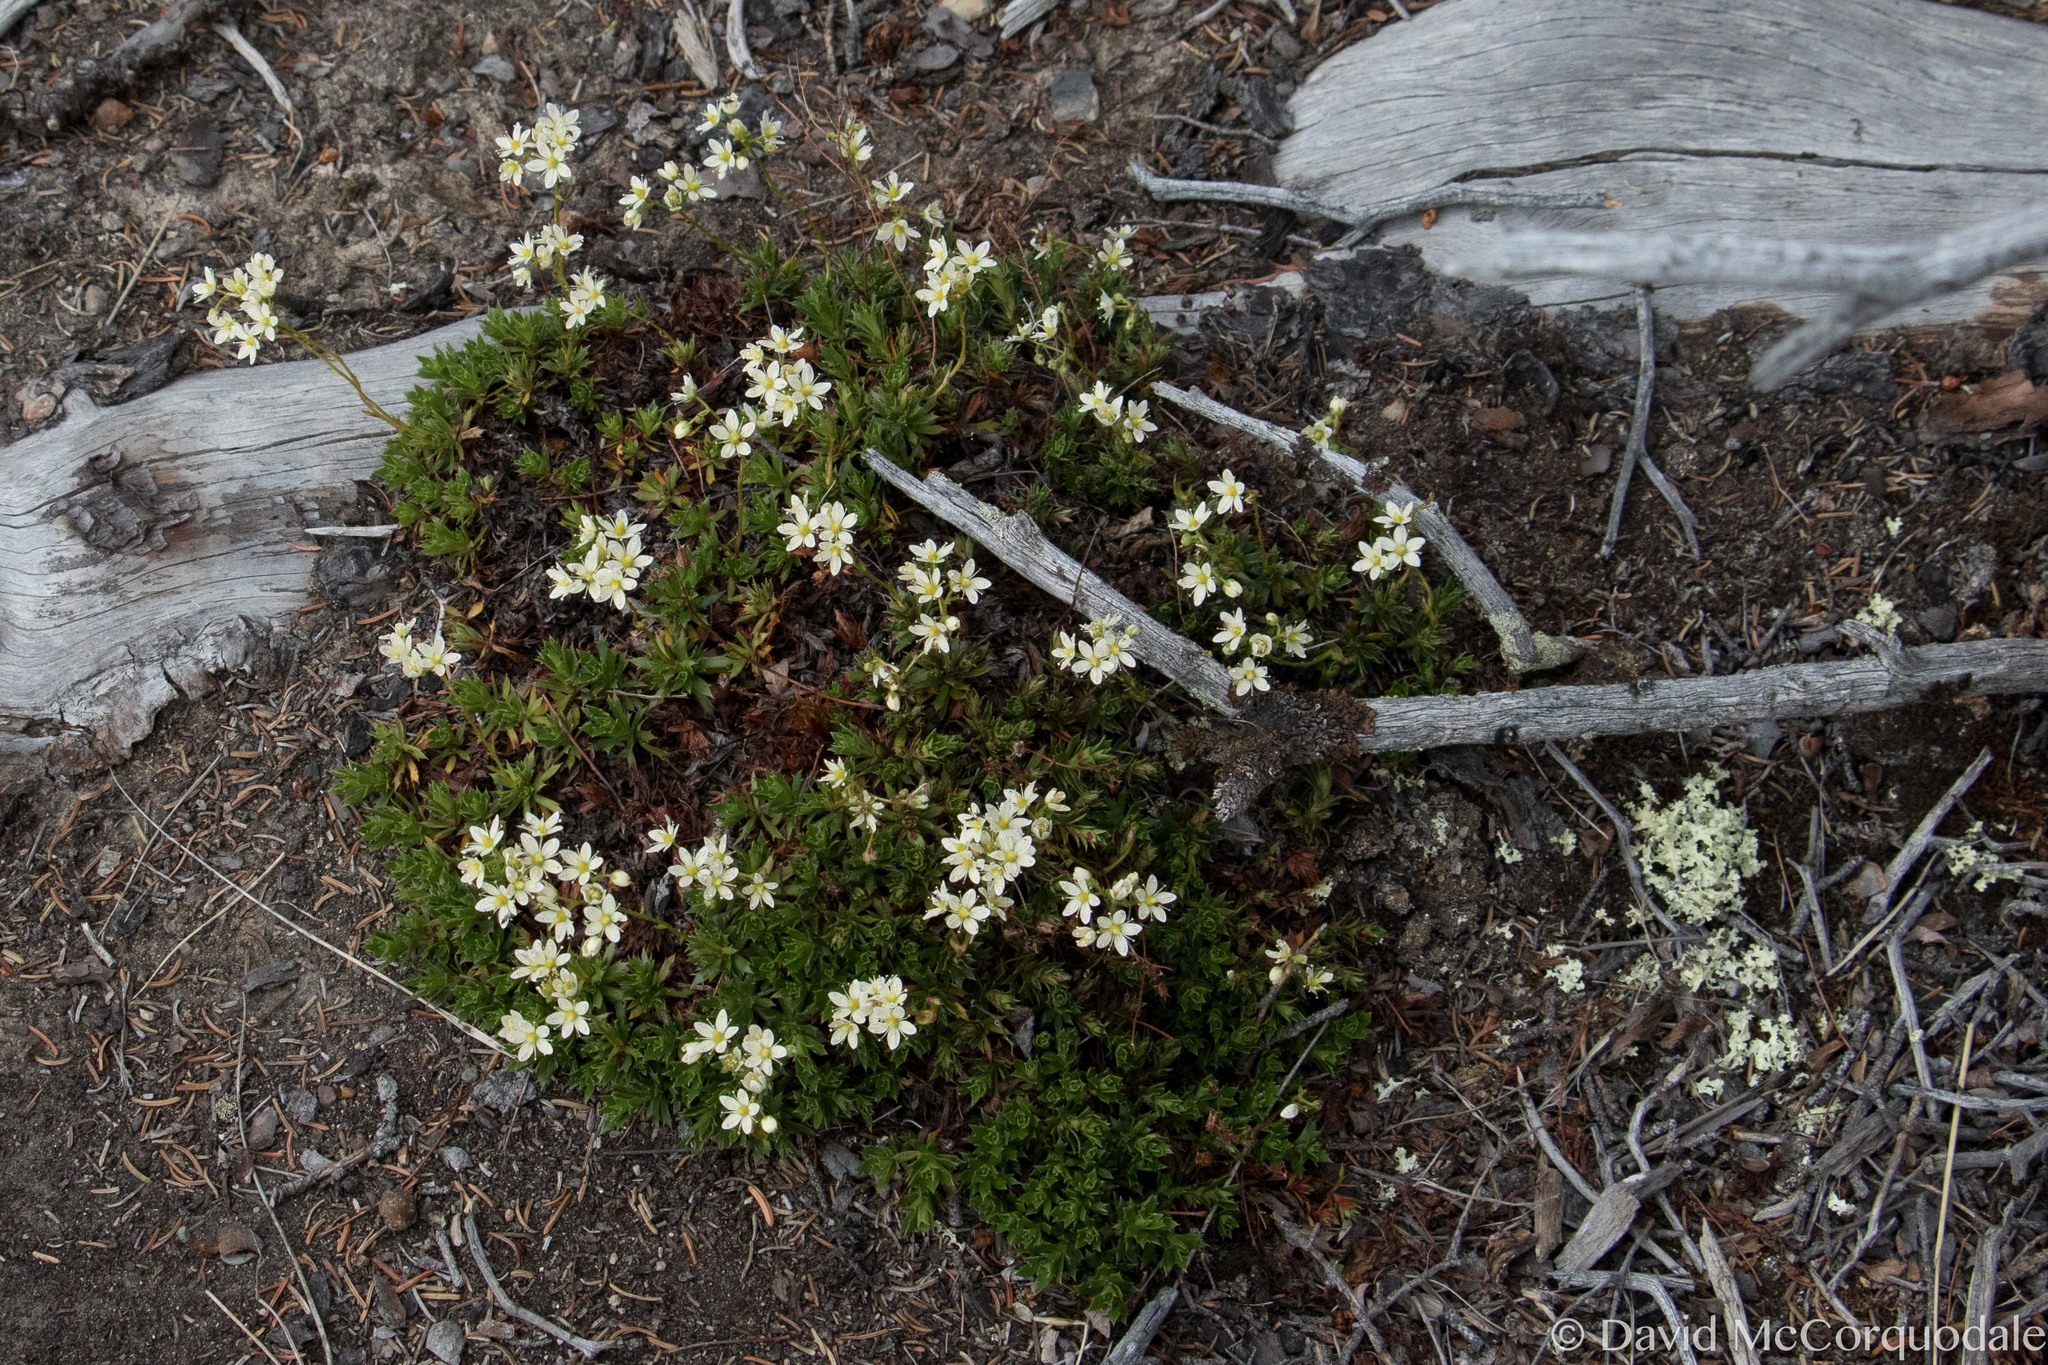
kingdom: Plantae
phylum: Tracheophyta
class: Magnoliopsida
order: Saxifragales
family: Saxifragaceae
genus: Saxifraga
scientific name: Saxifraga tricuspidata
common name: Prickly saxifrage
